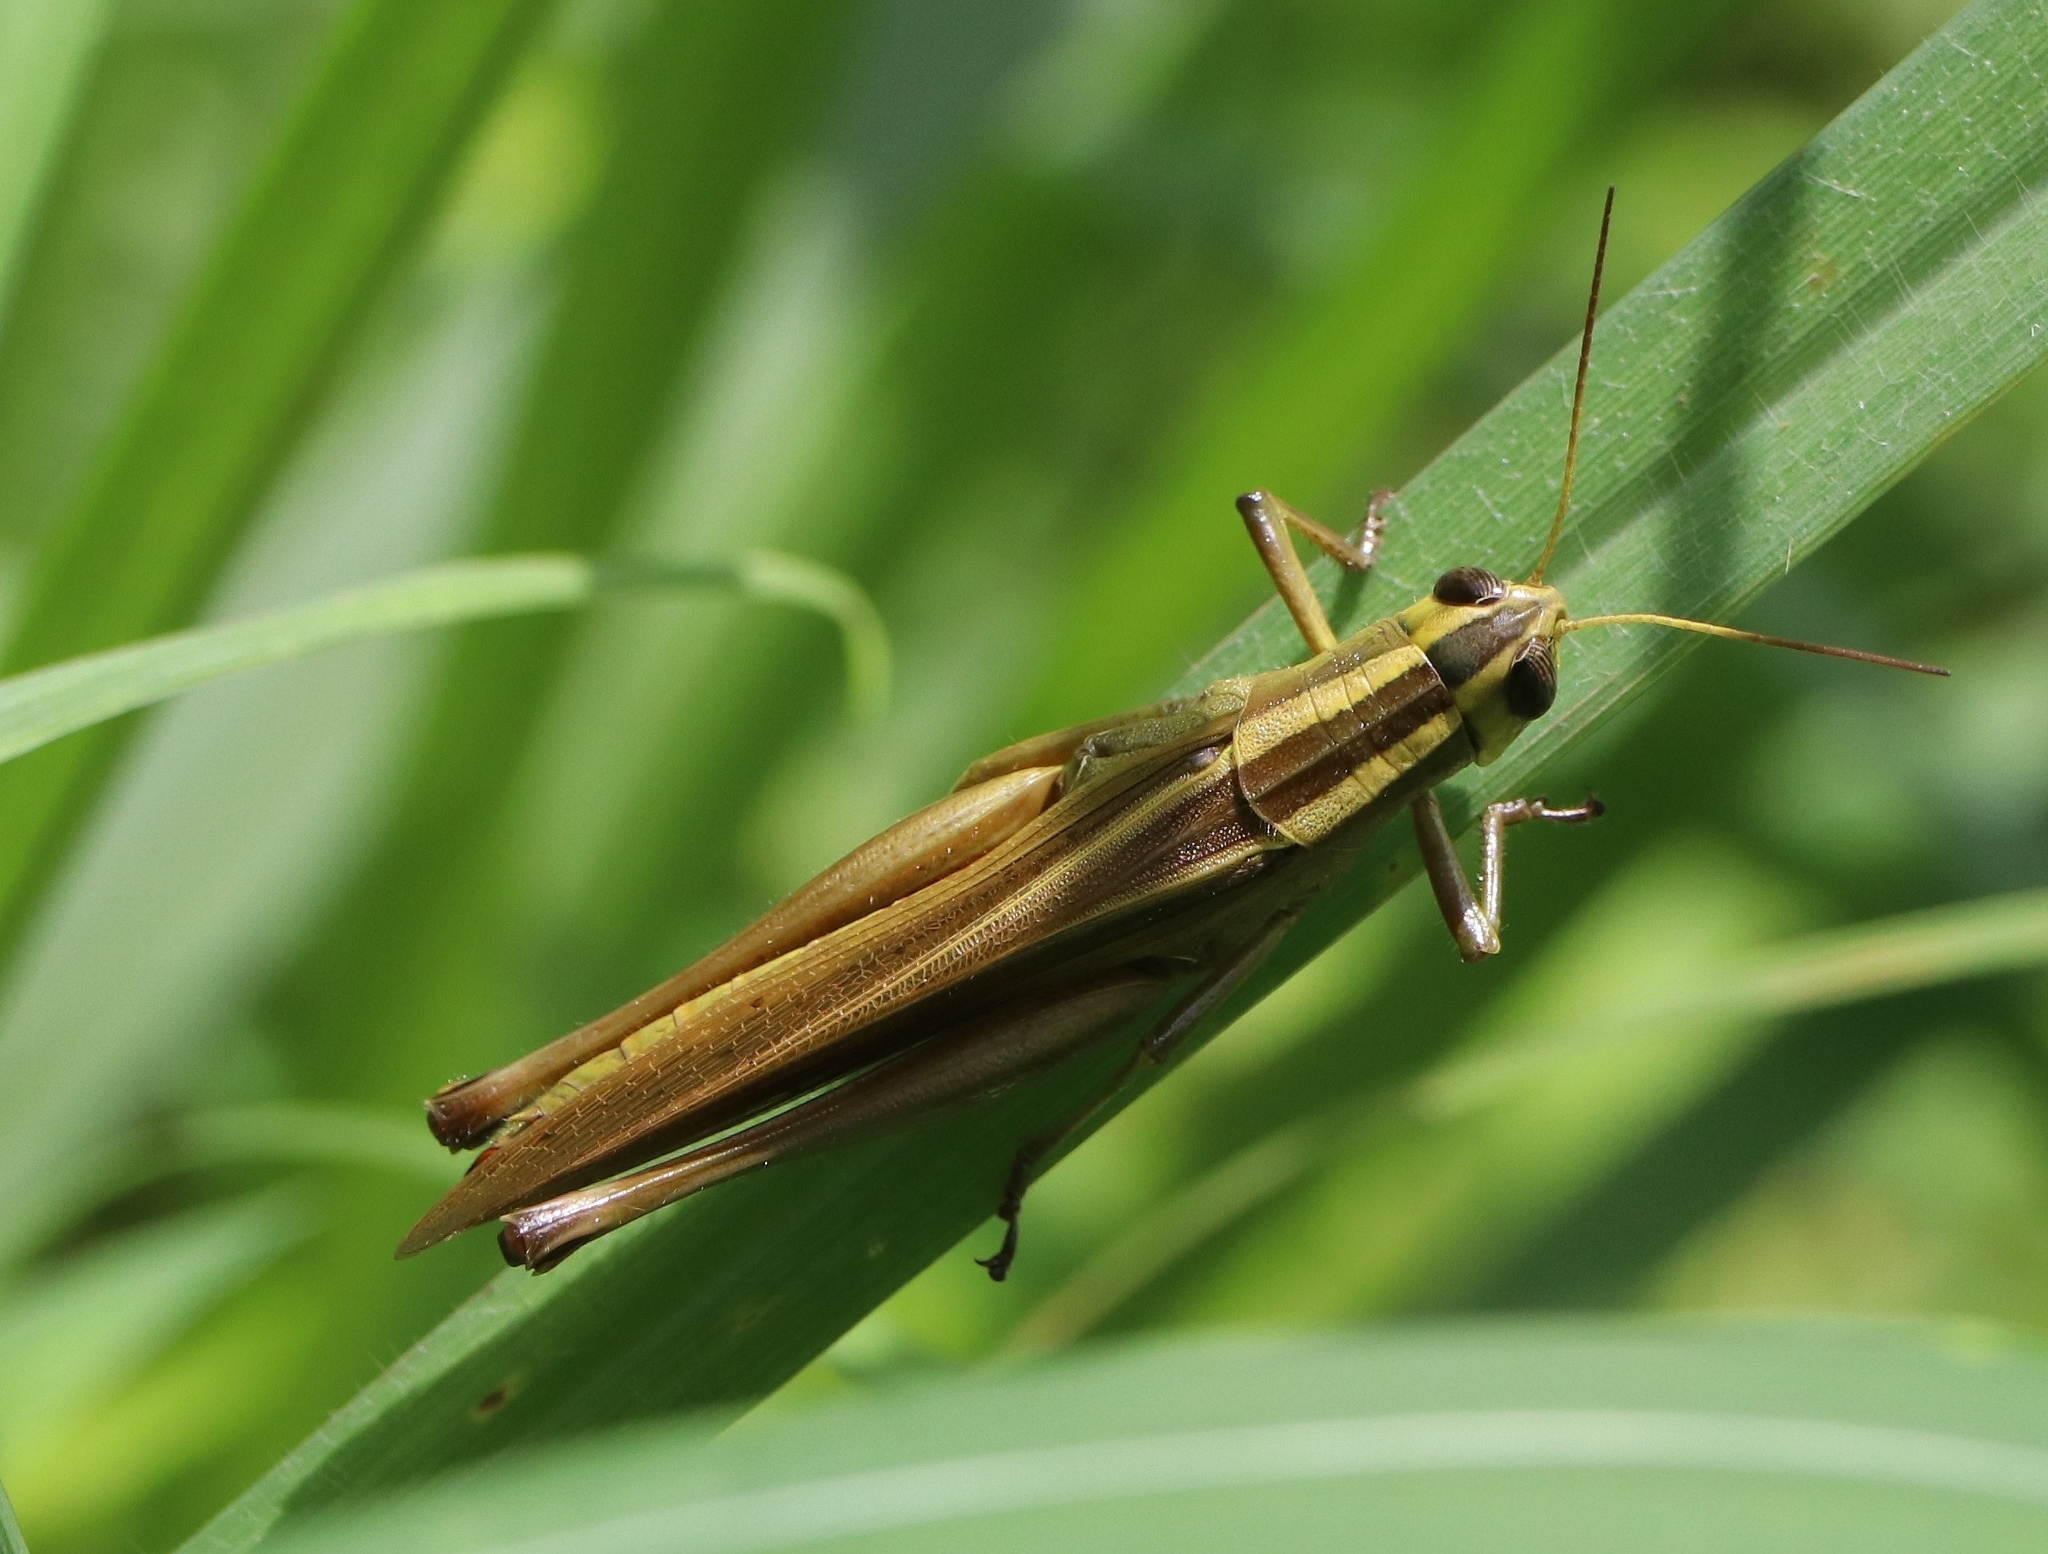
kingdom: Animalia
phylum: Arthropoda
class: Insecta
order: Orthoptera
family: Acrididae
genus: Choroedocus
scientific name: Choroedocus illustris
